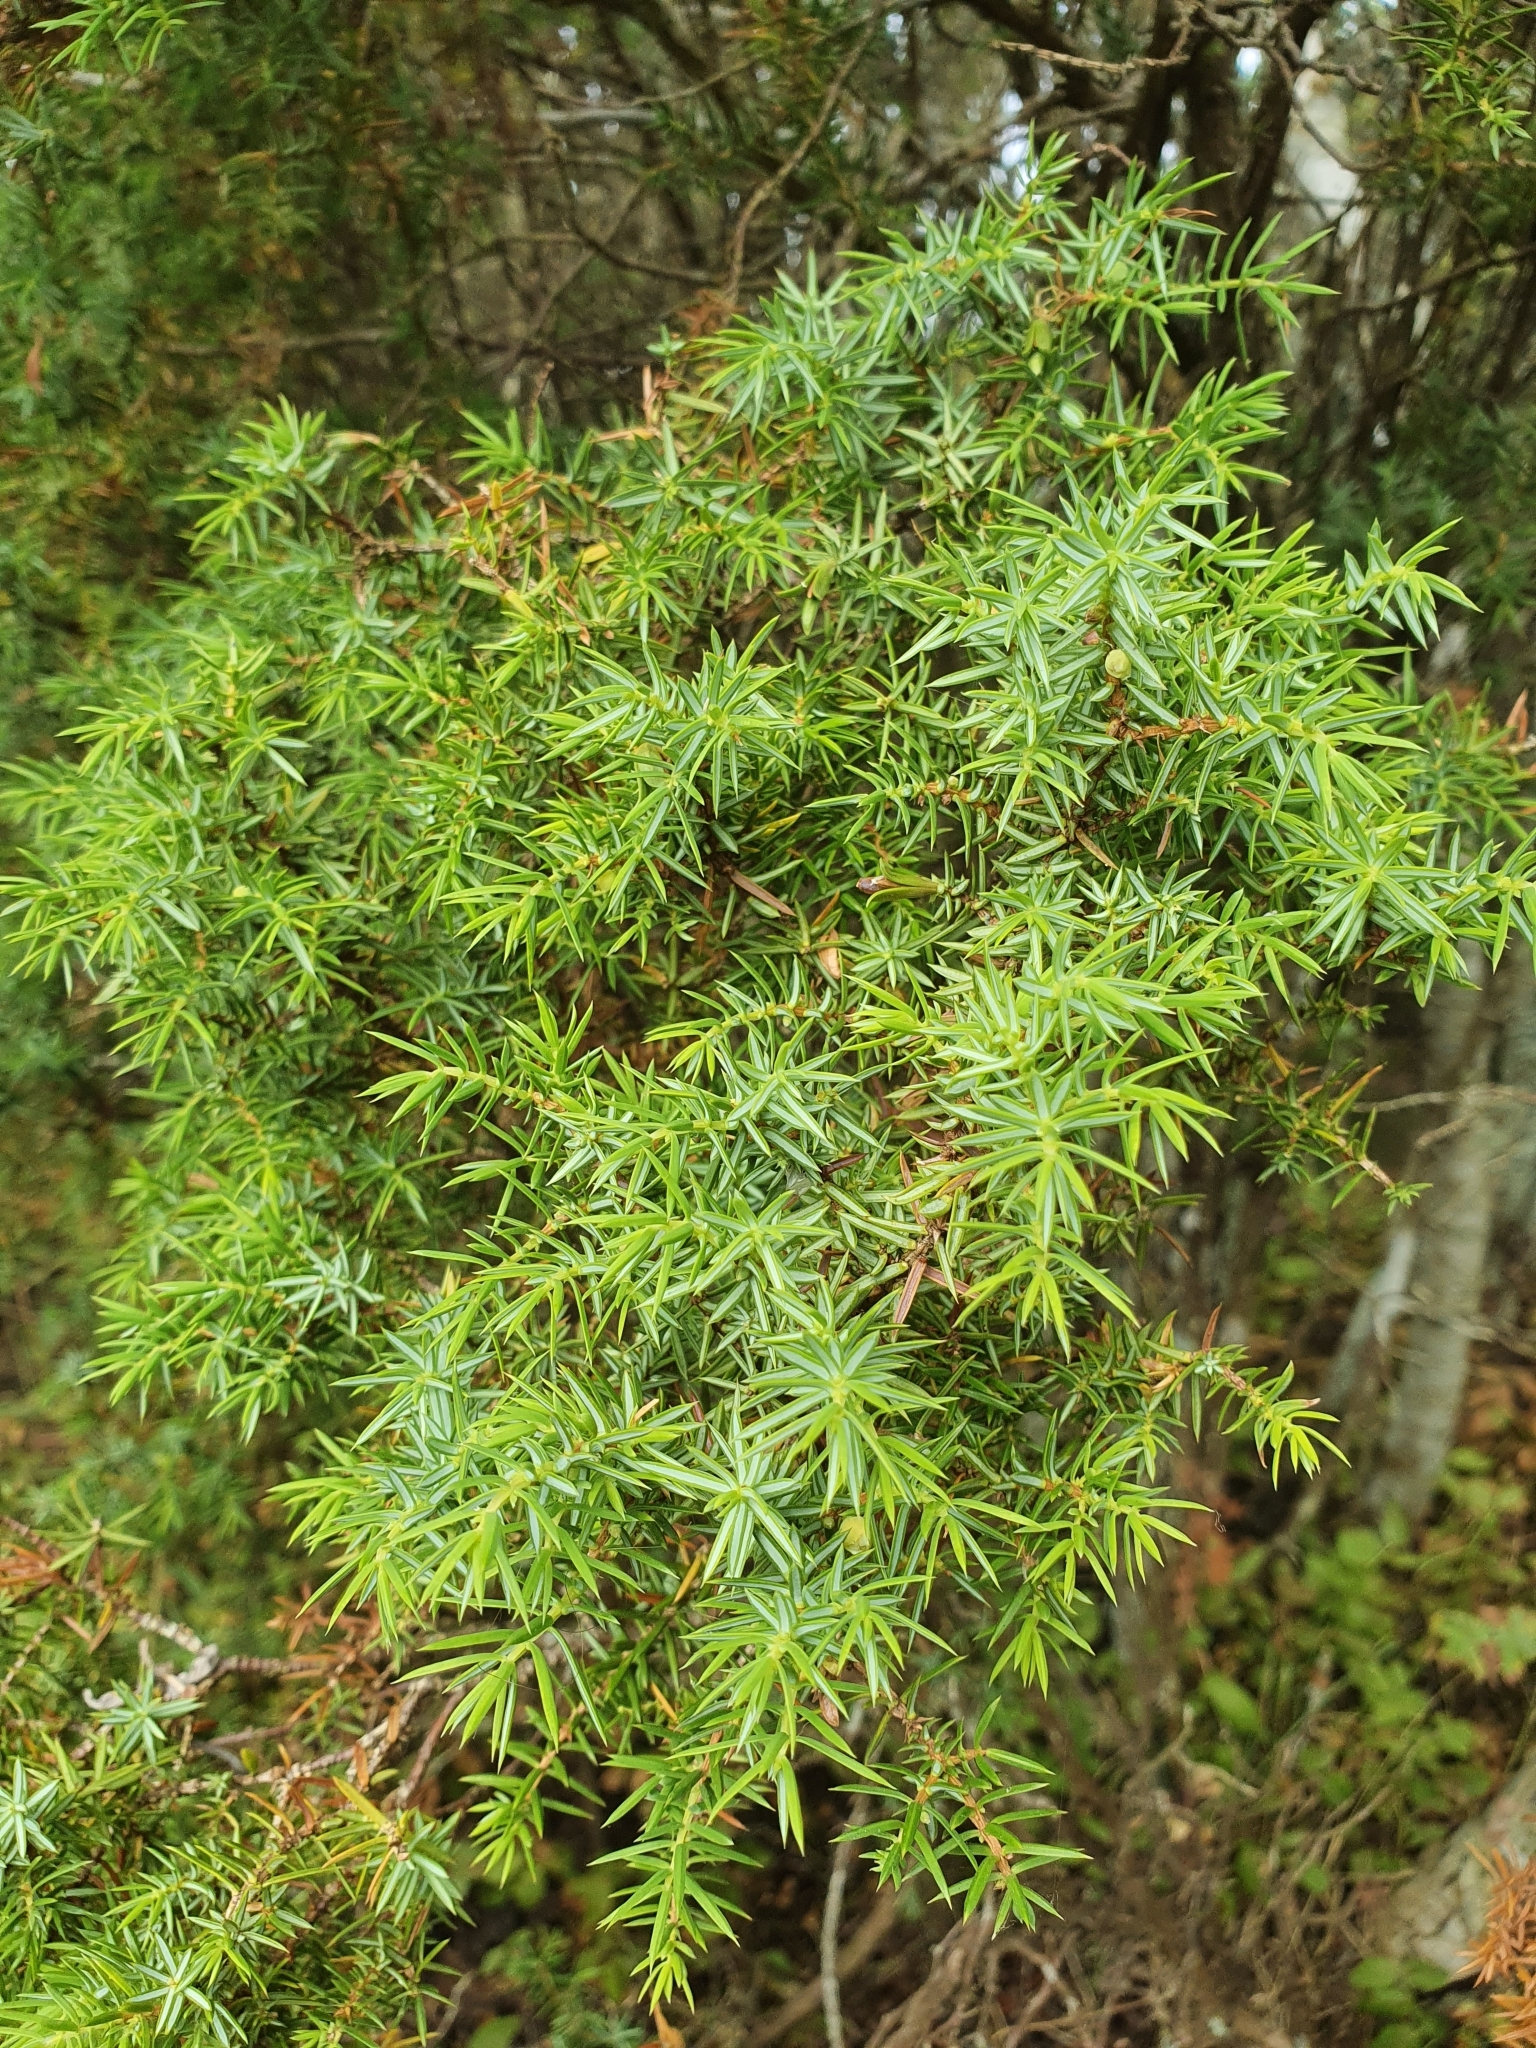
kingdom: Plantae
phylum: Tracheophyta
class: Pinopsida
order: Pinales
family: Cupressaceae
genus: Juniperus
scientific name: Juniperus communis
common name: Common juniper
